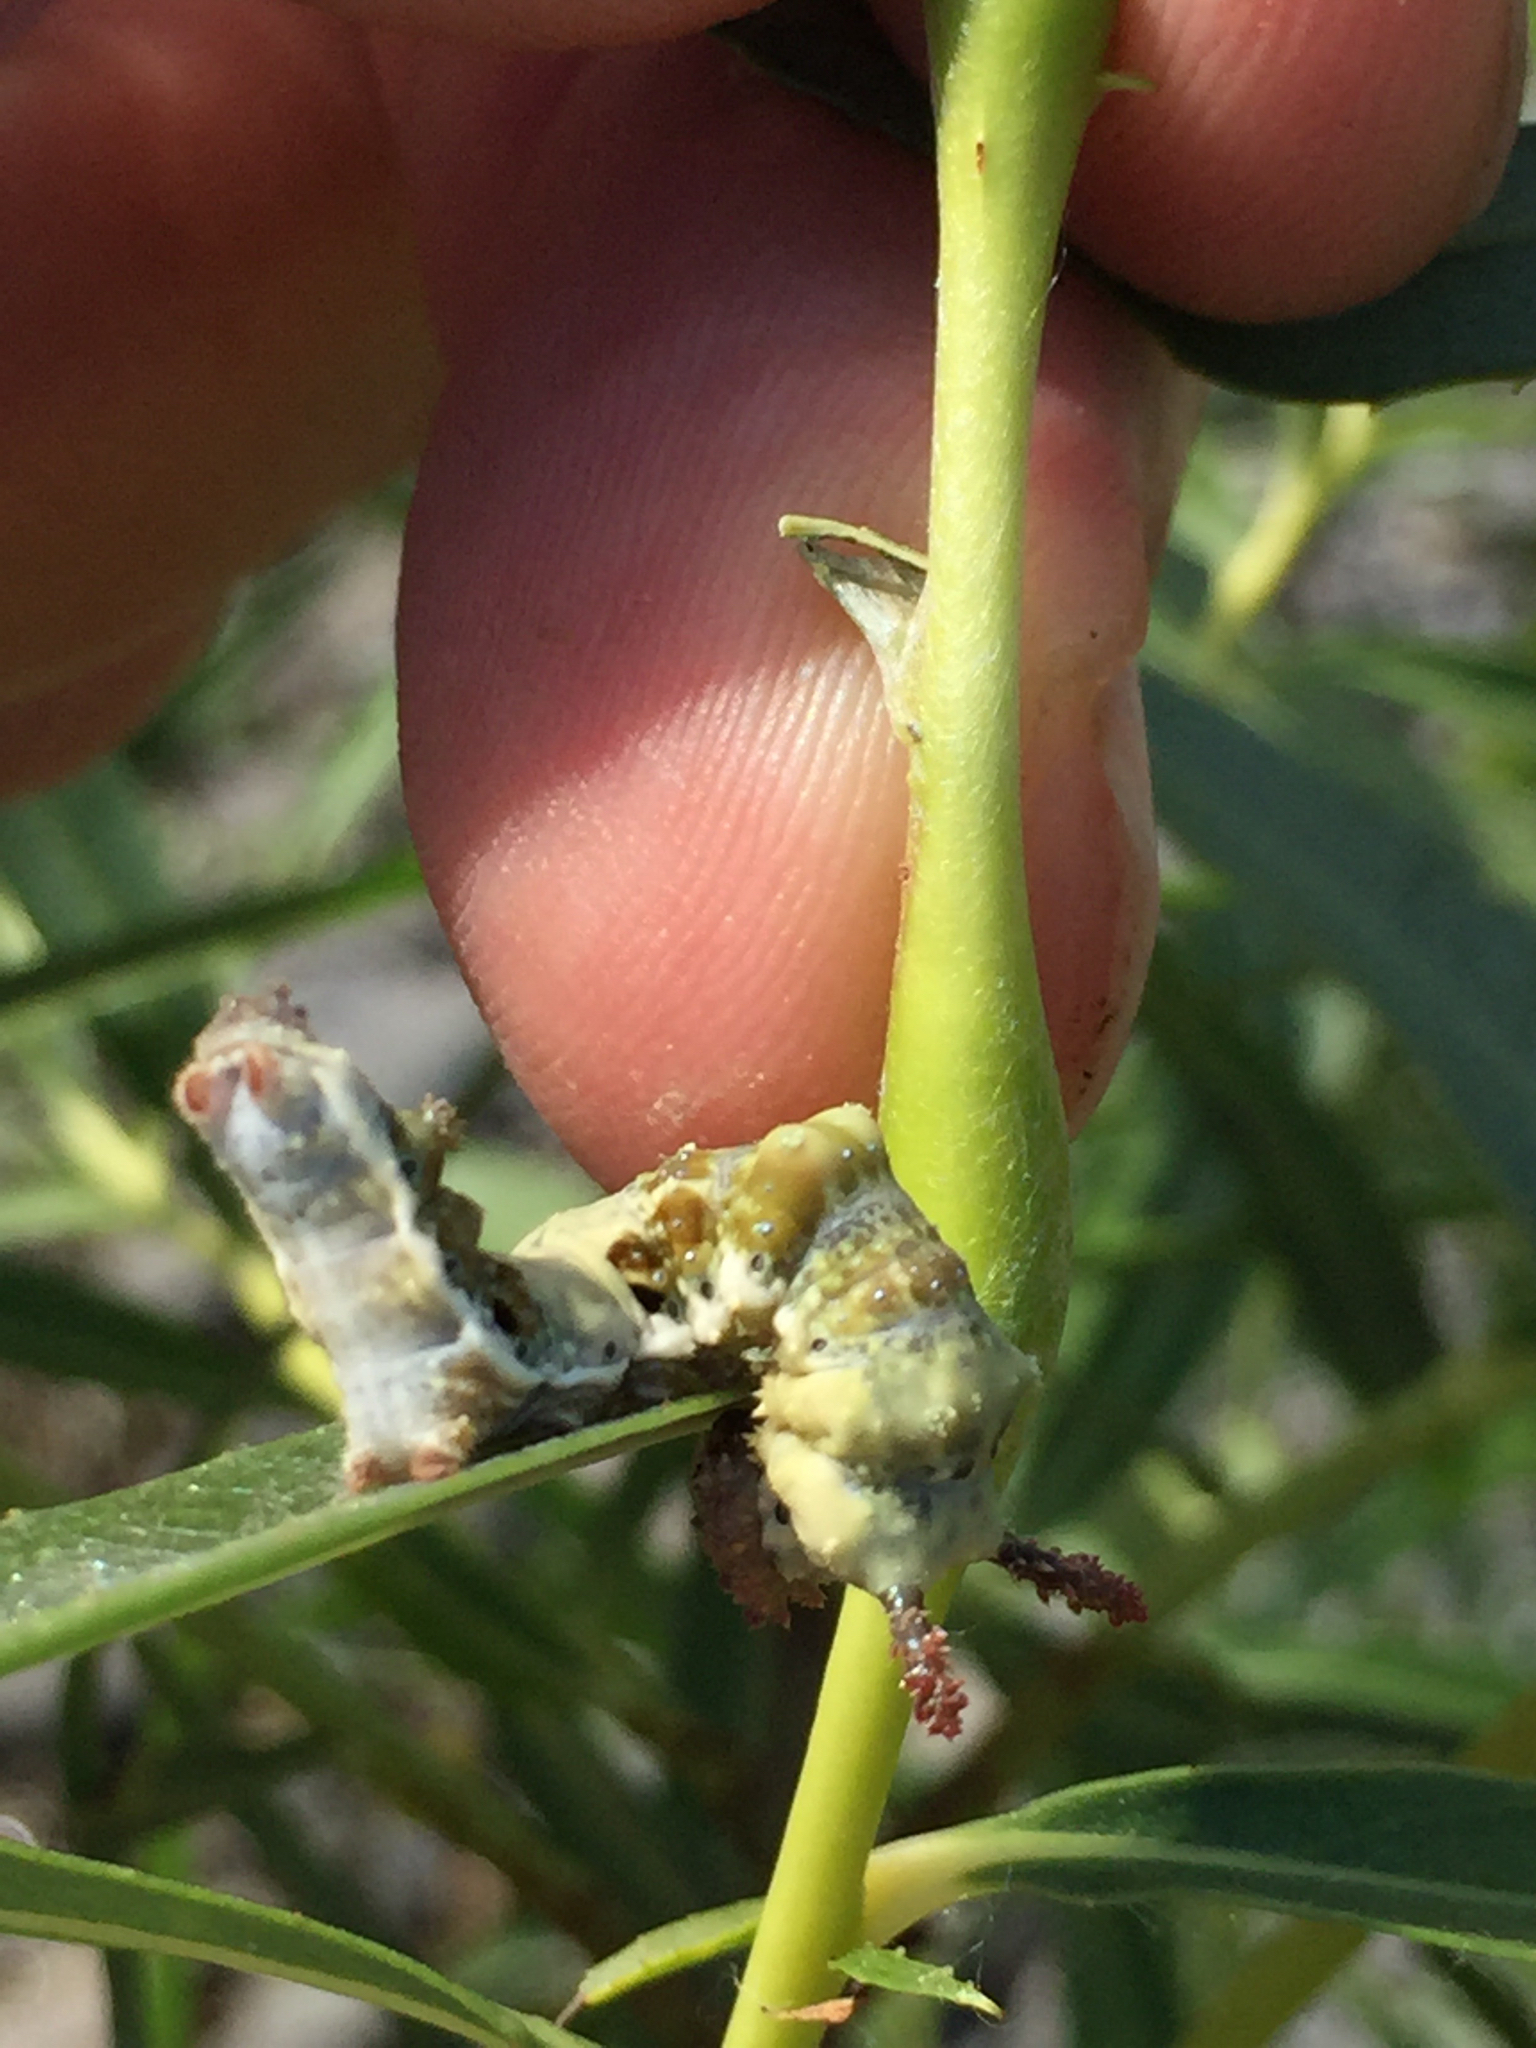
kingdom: Animalia
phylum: Arthropoda
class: Insecta
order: Lepidoptera
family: Nymphalidae
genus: Limenitis
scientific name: Limenitis lorquini
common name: Lorquin's admiral
